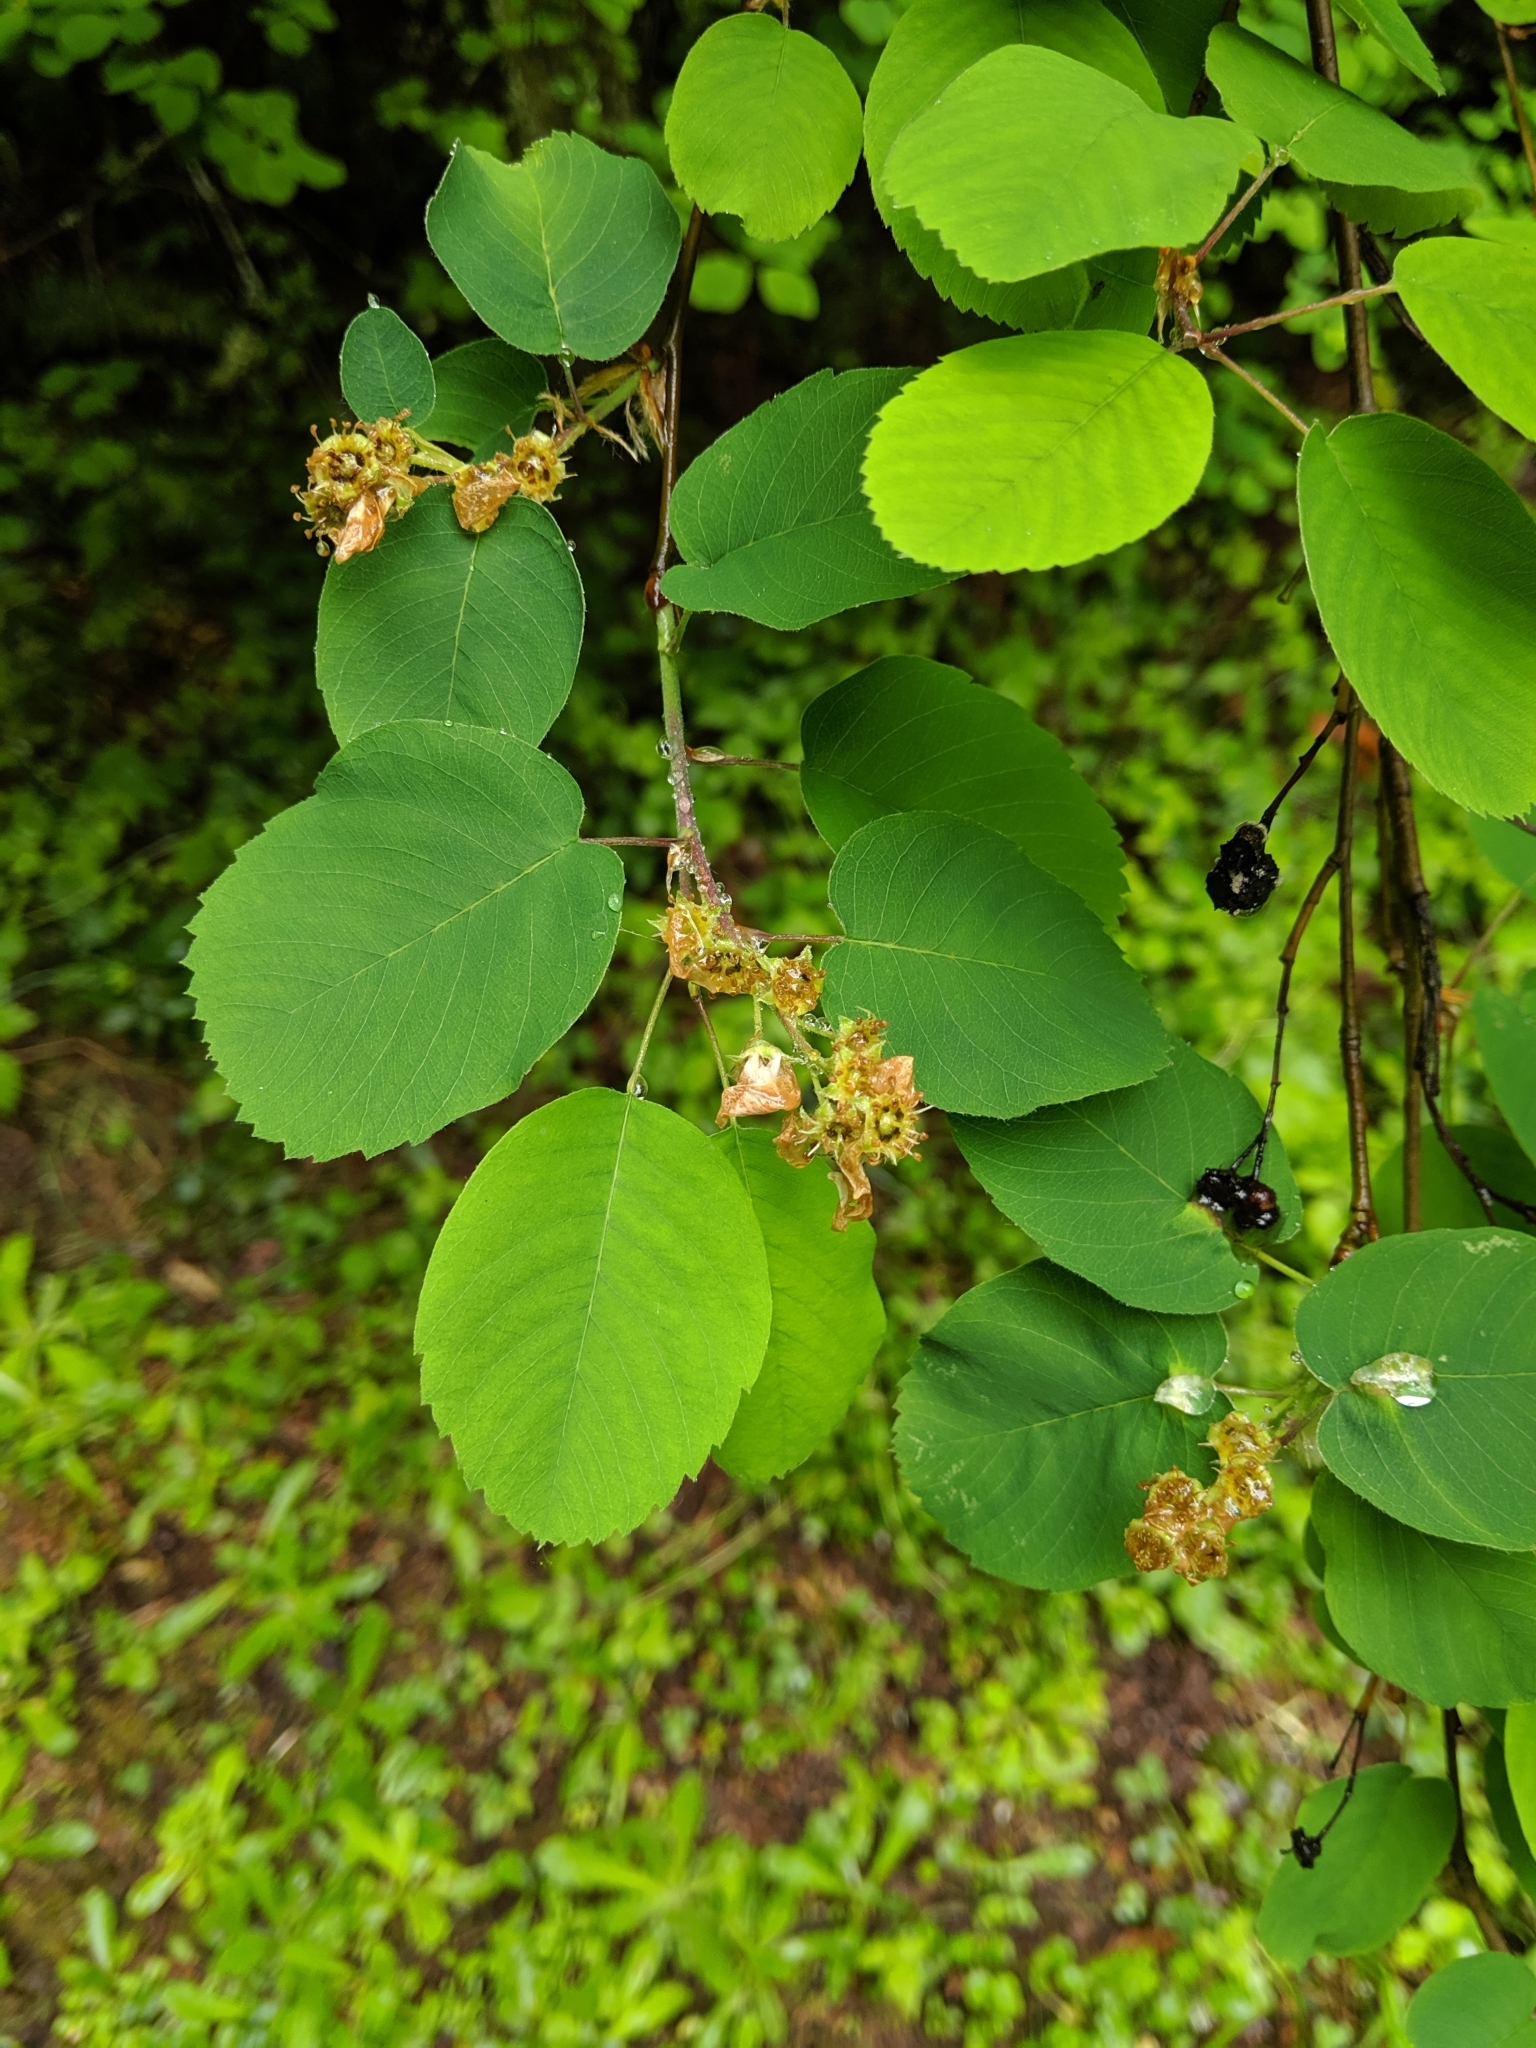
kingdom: Plantae
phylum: Tracheophyta
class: Magnoliopsida
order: Rosales
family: Rosaceae
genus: Amelanchier
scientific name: Amelanchier alnifolia
